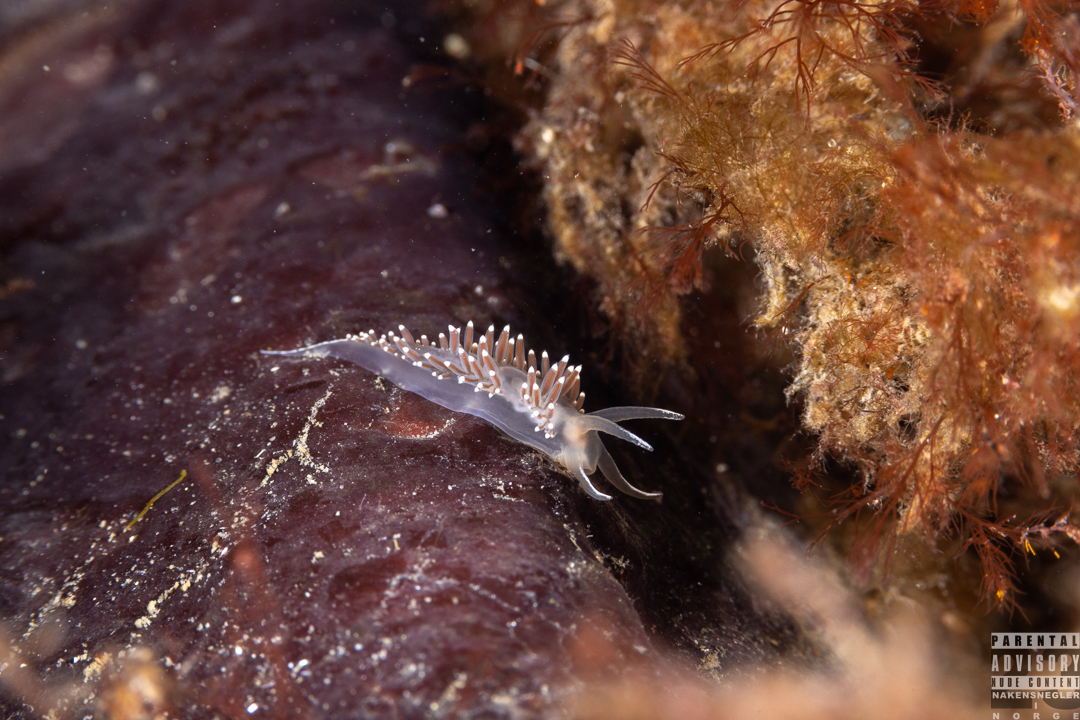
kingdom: Animalia
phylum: Mollusca
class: Gastropoda
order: Nudibranchia
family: Coryphellidae
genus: Coryphella
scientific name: Coryphella verrucosa
